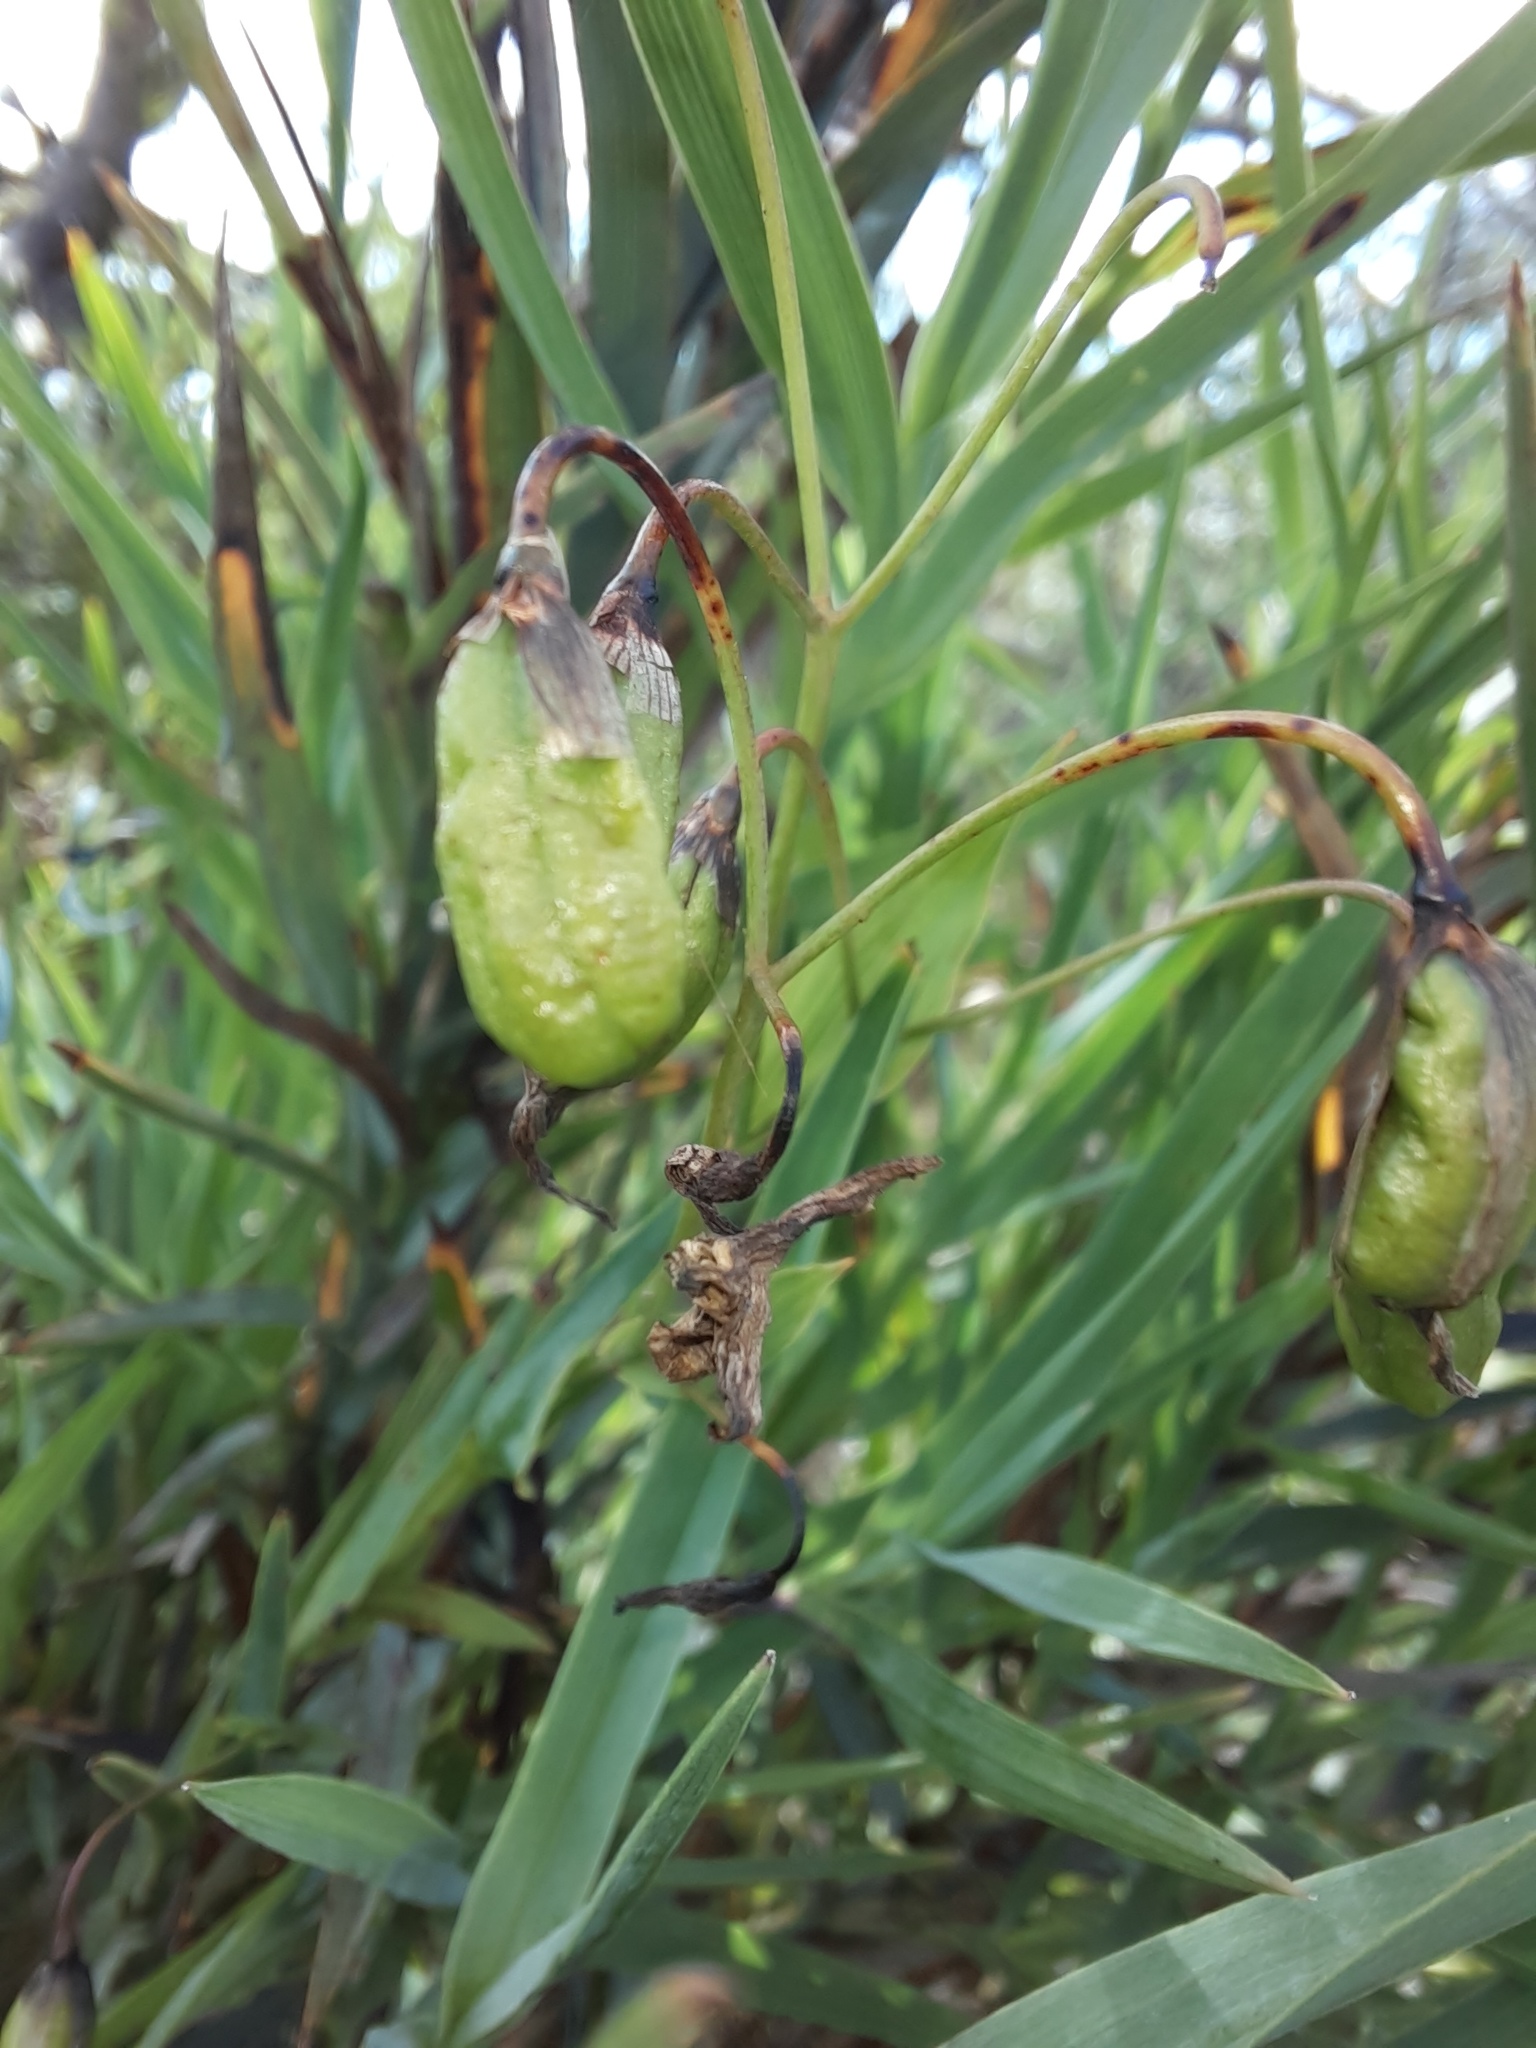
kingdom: Plantae
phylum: Tracheophyta
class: Liliopsida
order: Asparagales
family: Asphodelaceae
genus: Stypandra
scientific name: Stypandra glauca
